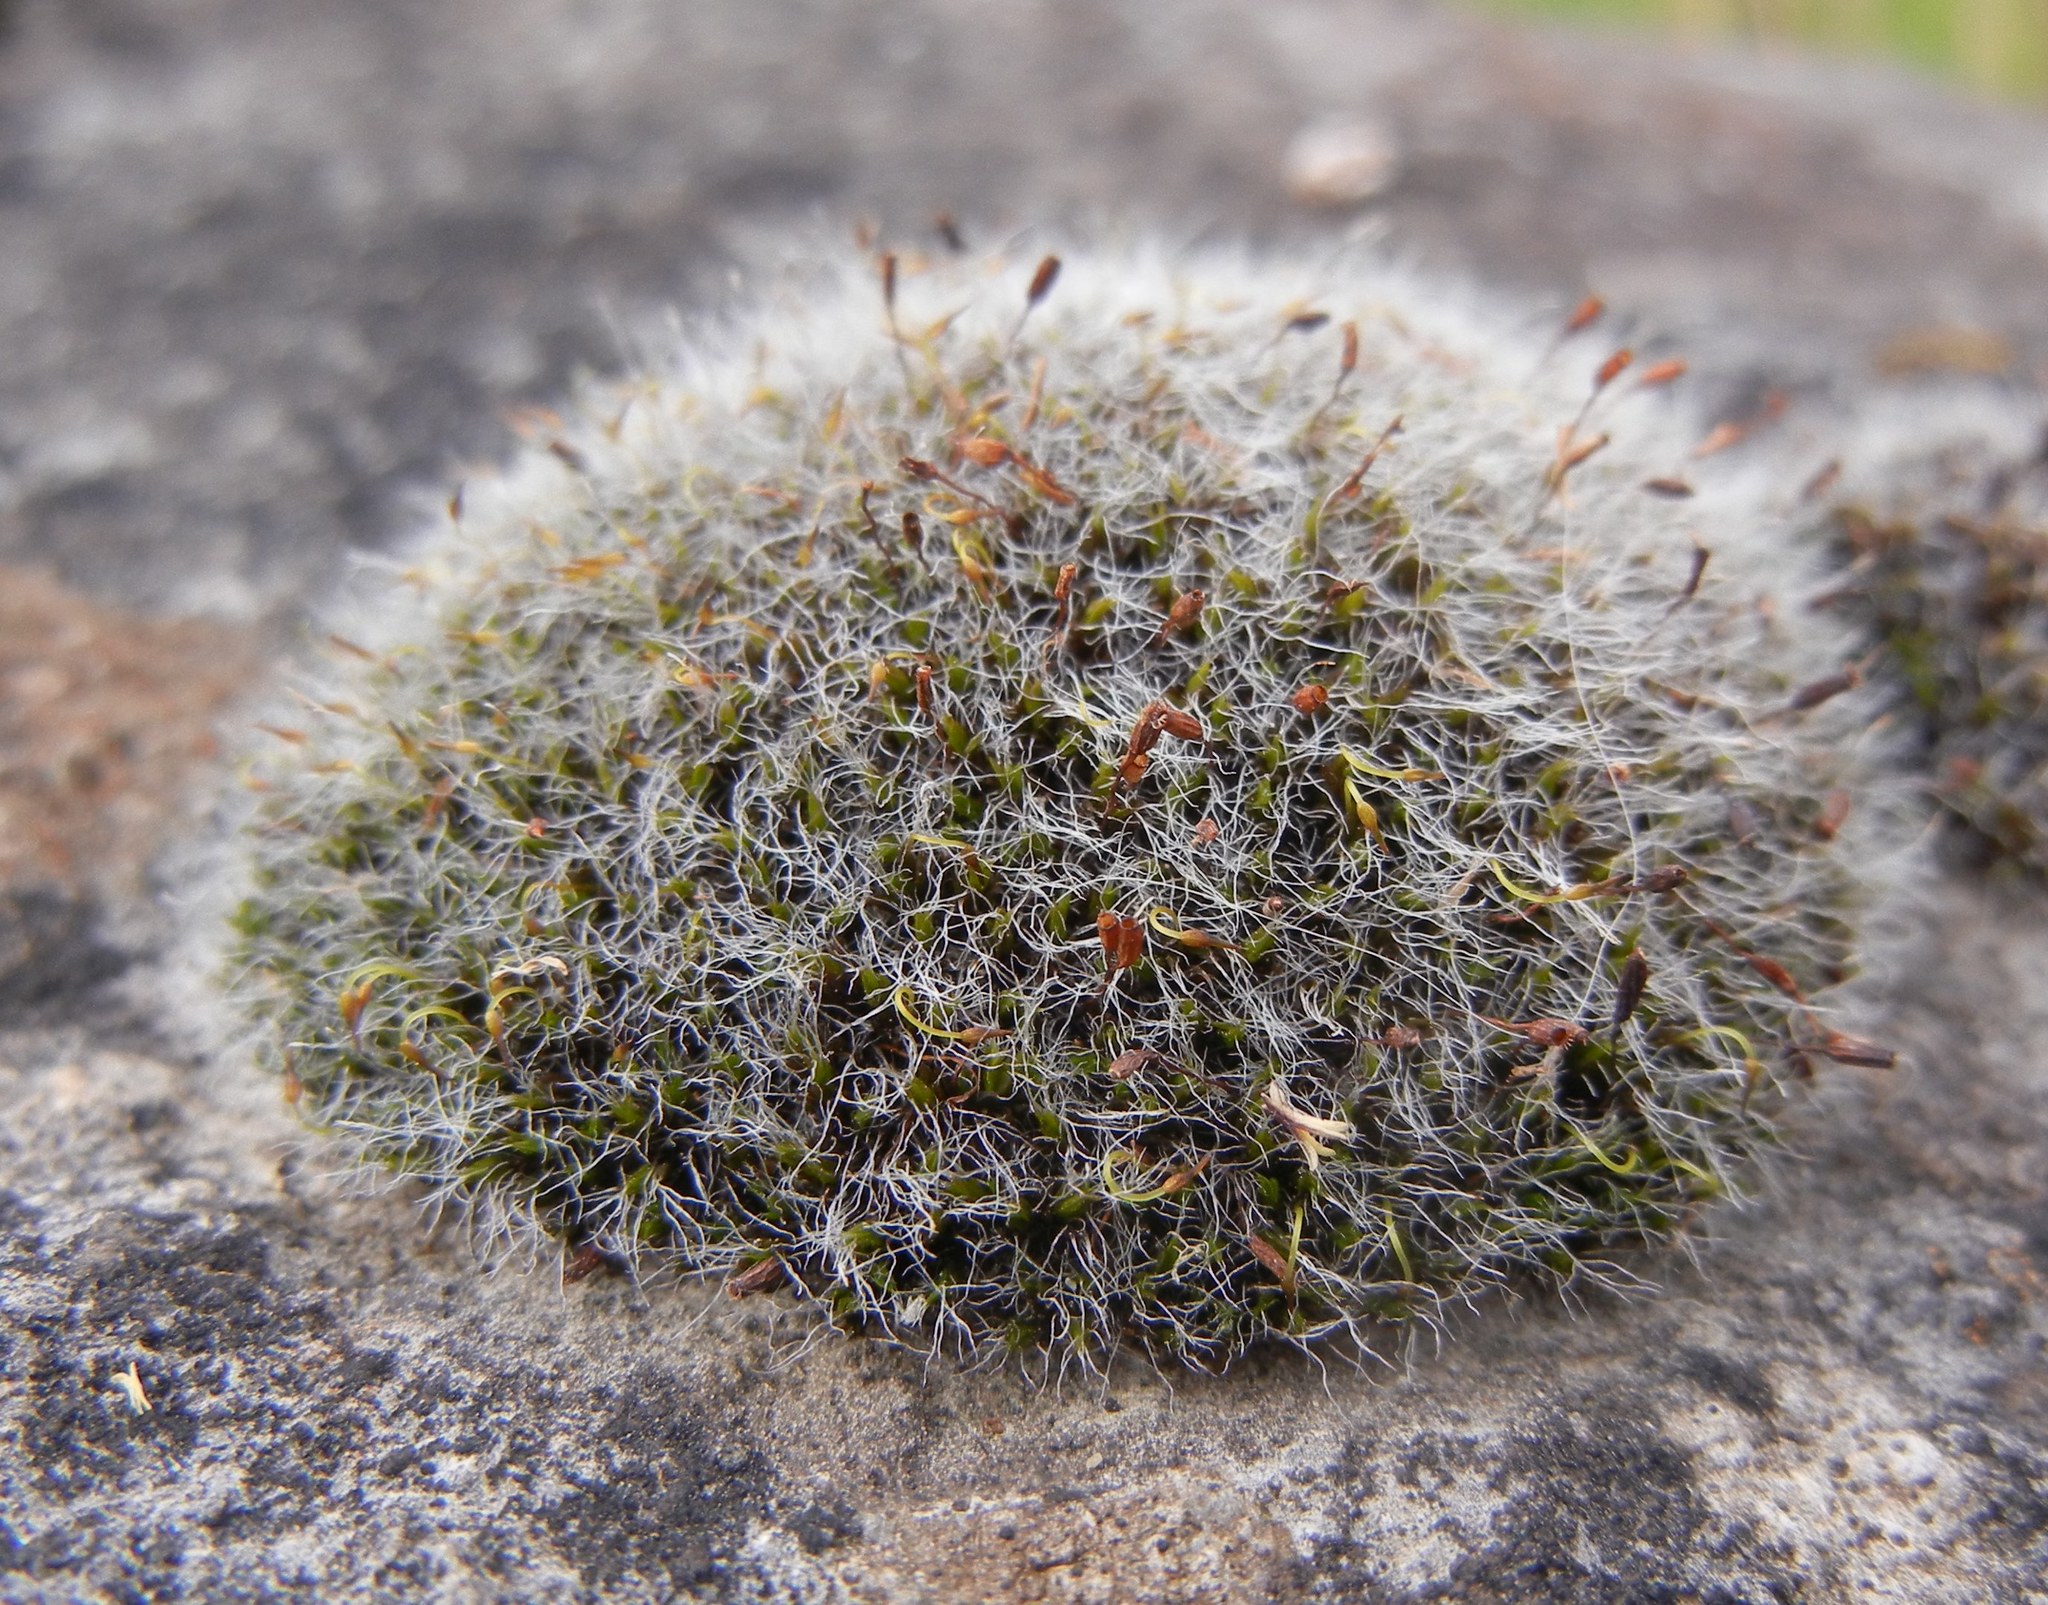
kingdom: Plantae
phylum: Bryophyta
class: Bryopsida
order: Grimmiales
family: Grimmiaceae
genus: Grimmia
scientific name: Grimmia pulvinata
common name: Grey-cushioned grimmia
